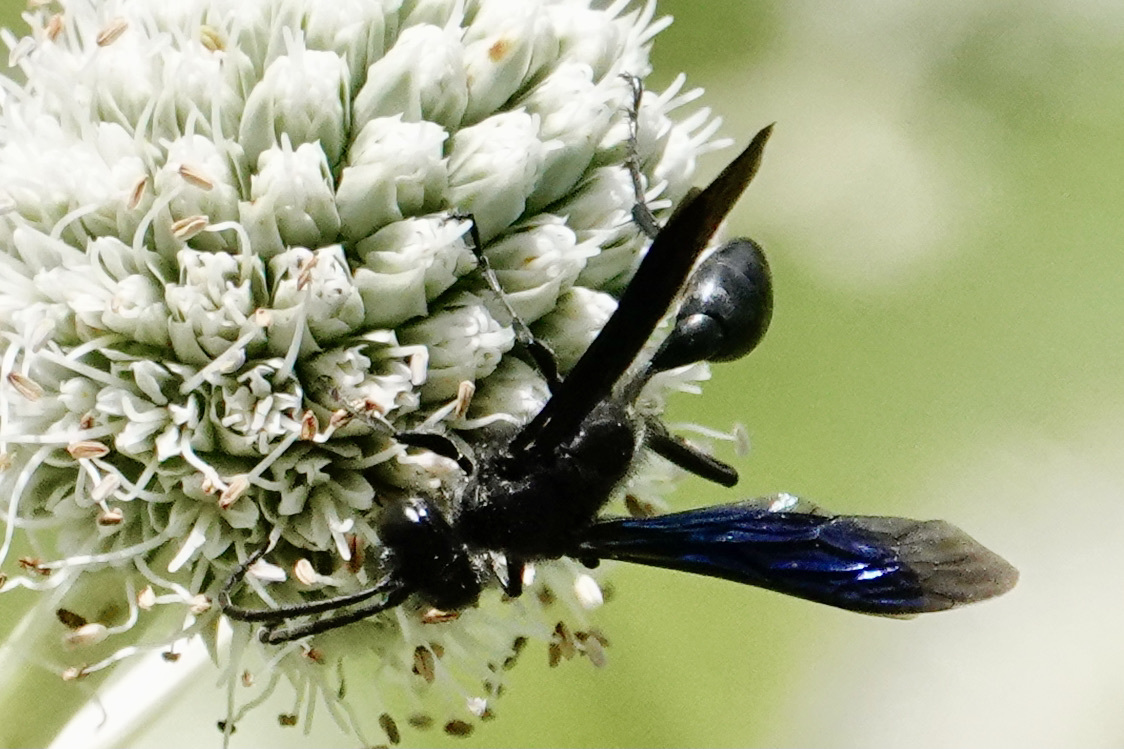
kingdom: Animalia
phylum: Arthropoda
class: Insecta
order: Hymenoptera
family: Sphecidae
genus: Isodontia
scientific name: Isodontia philadelphica
